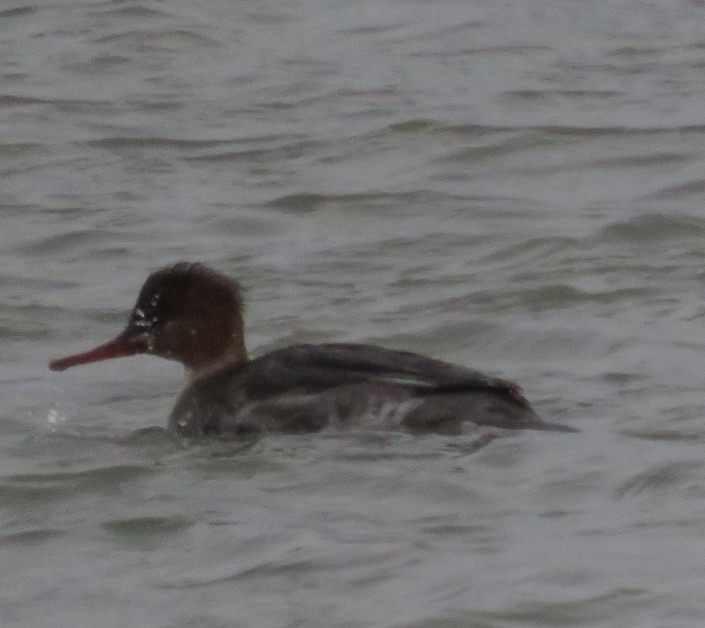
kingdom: Animalia
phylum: Chordata
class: Aves
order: Anseriformes
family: Anatidae
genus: Mergus
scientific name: Mergus serrator
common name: Red-breasted merganser
